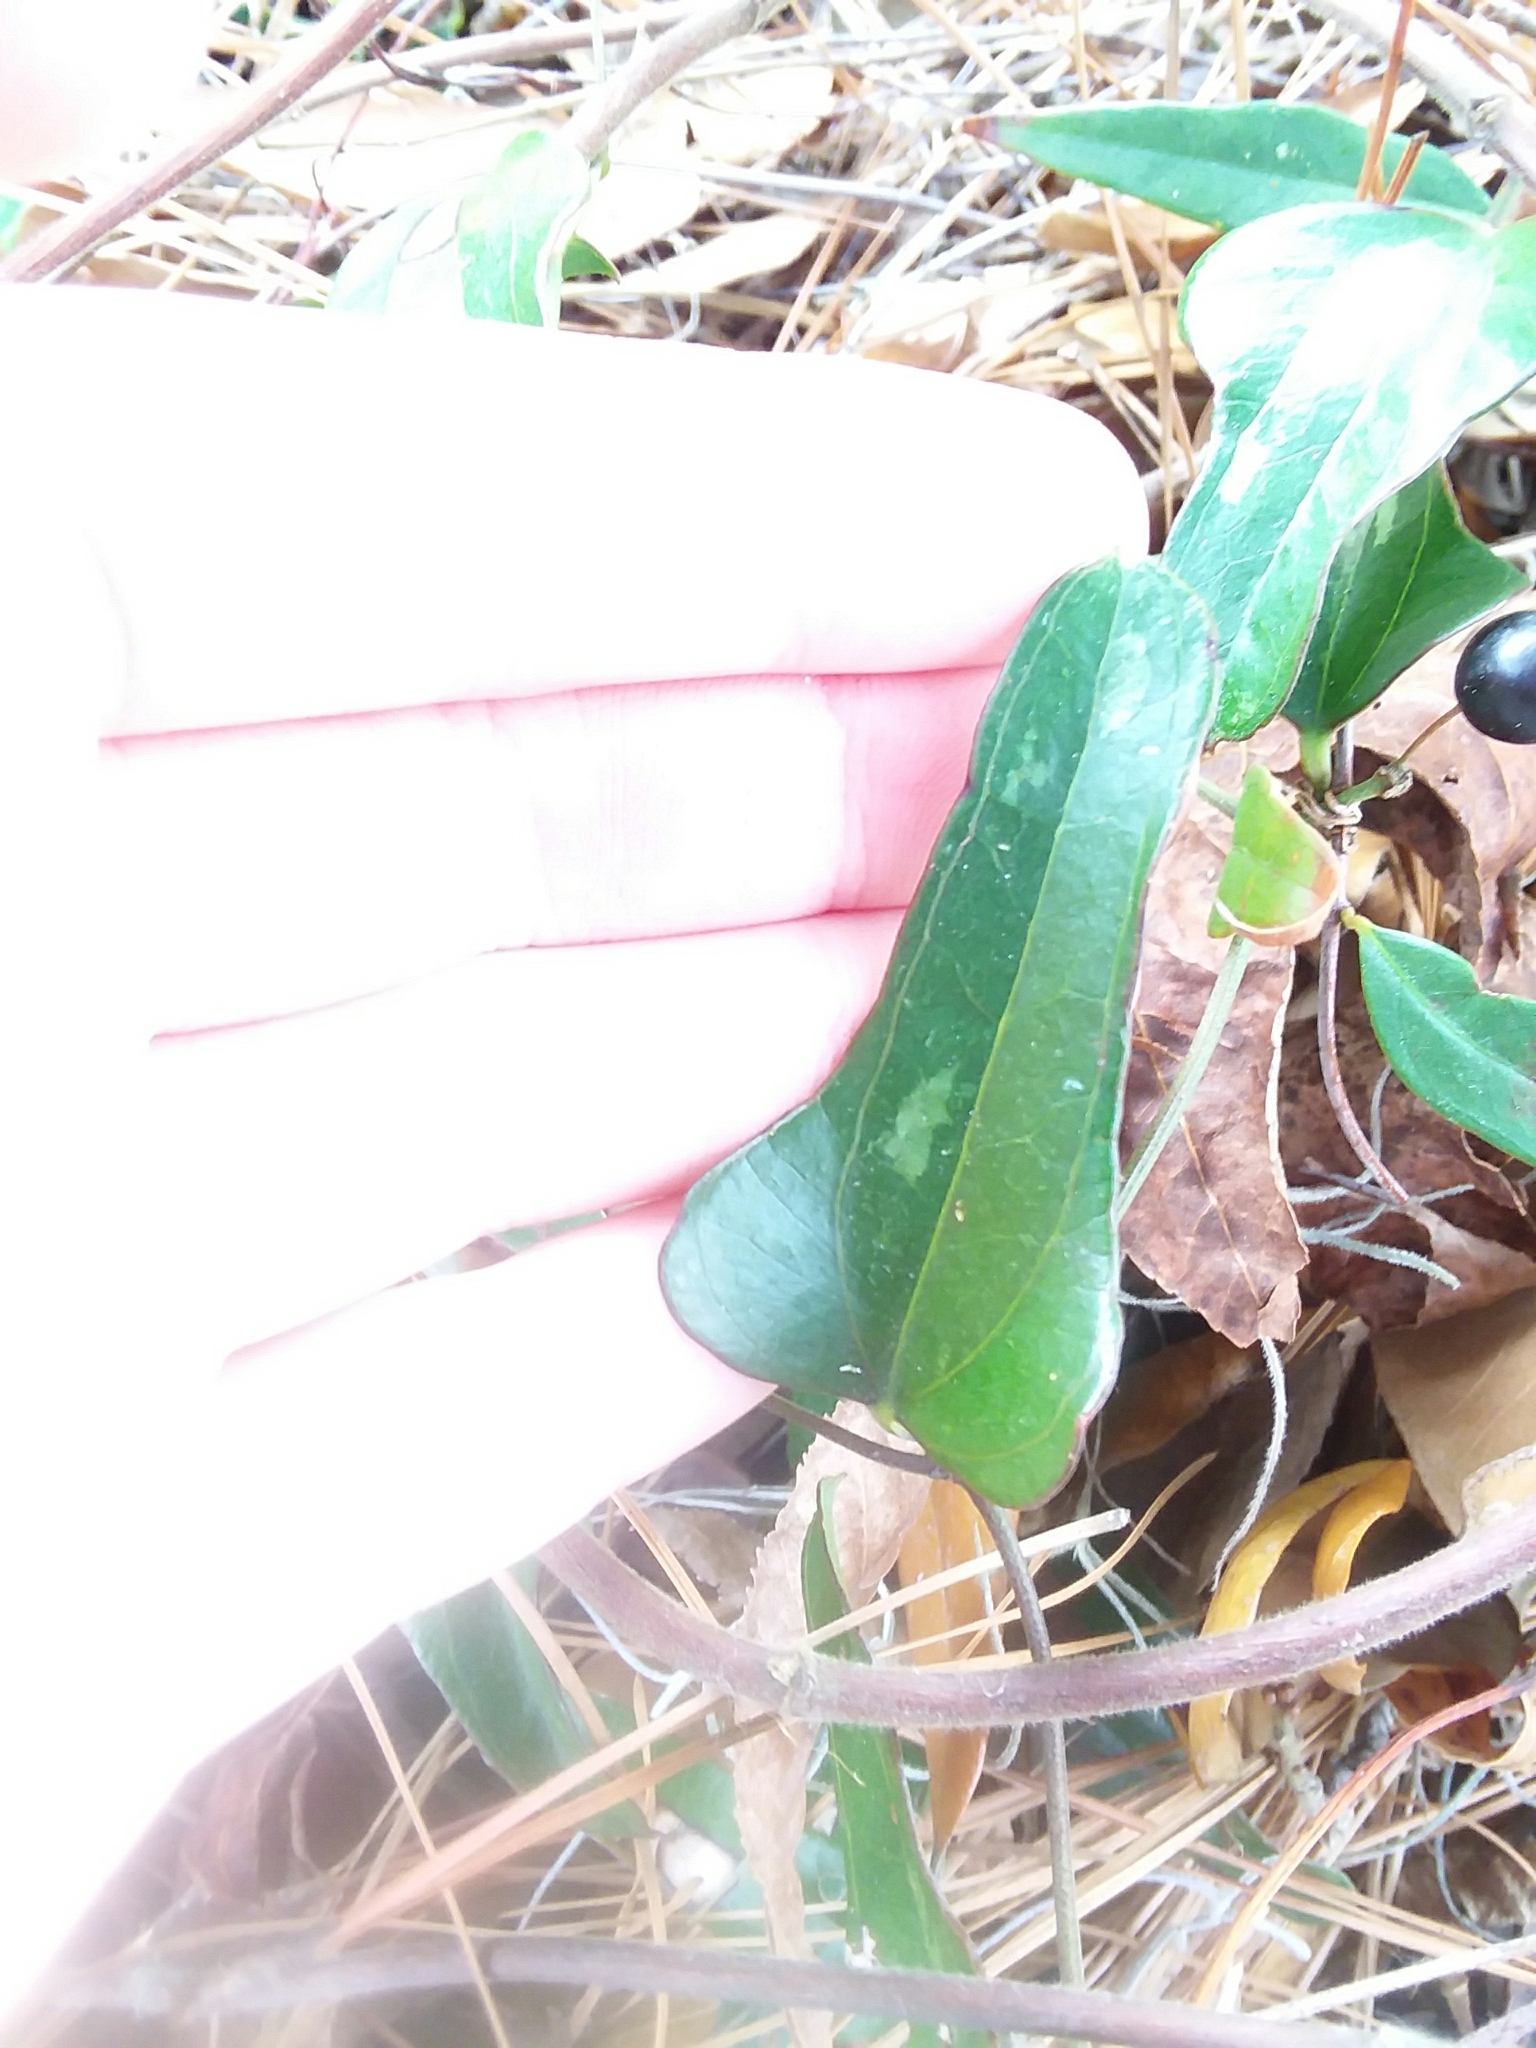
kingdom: Plantae
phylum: Tracheophyta
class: Liliopsida
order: Liliales
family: Smilacaceae
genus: Smilax
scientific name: Smilax auriculata
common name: Wild bamboo
